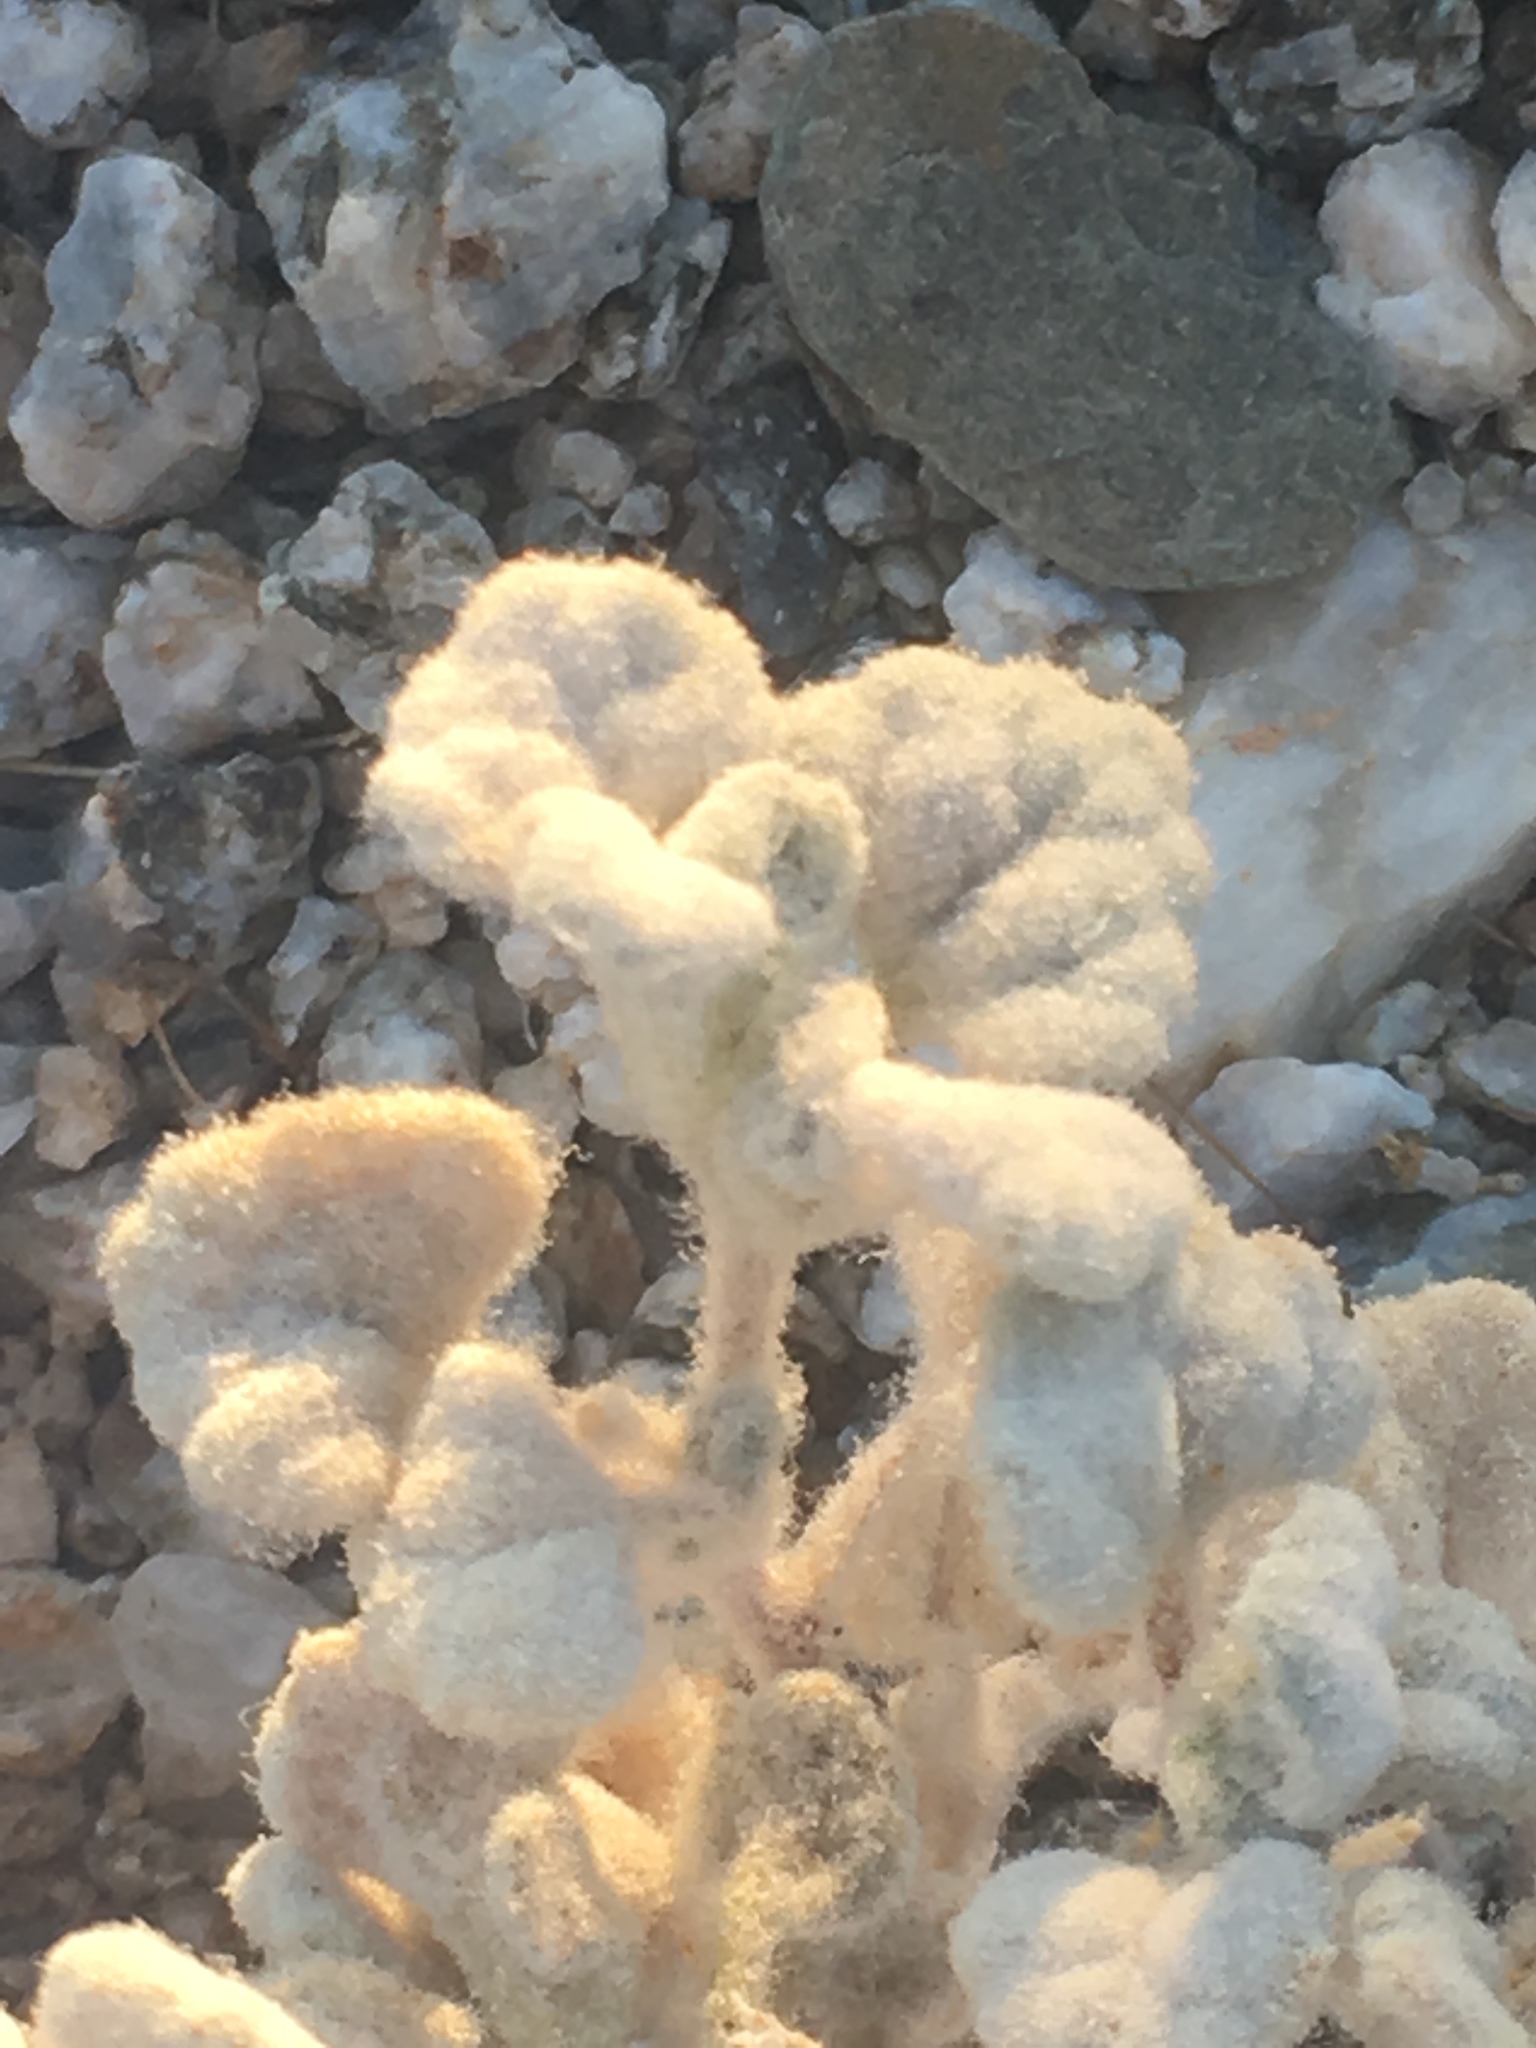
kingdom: Plantae
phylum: Tracheophyta
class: Magnoliopsida
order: Asterales
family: Asteraceae
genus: Psathyrotes
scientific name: Psathyrotes ramosissima
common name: Turtleback
